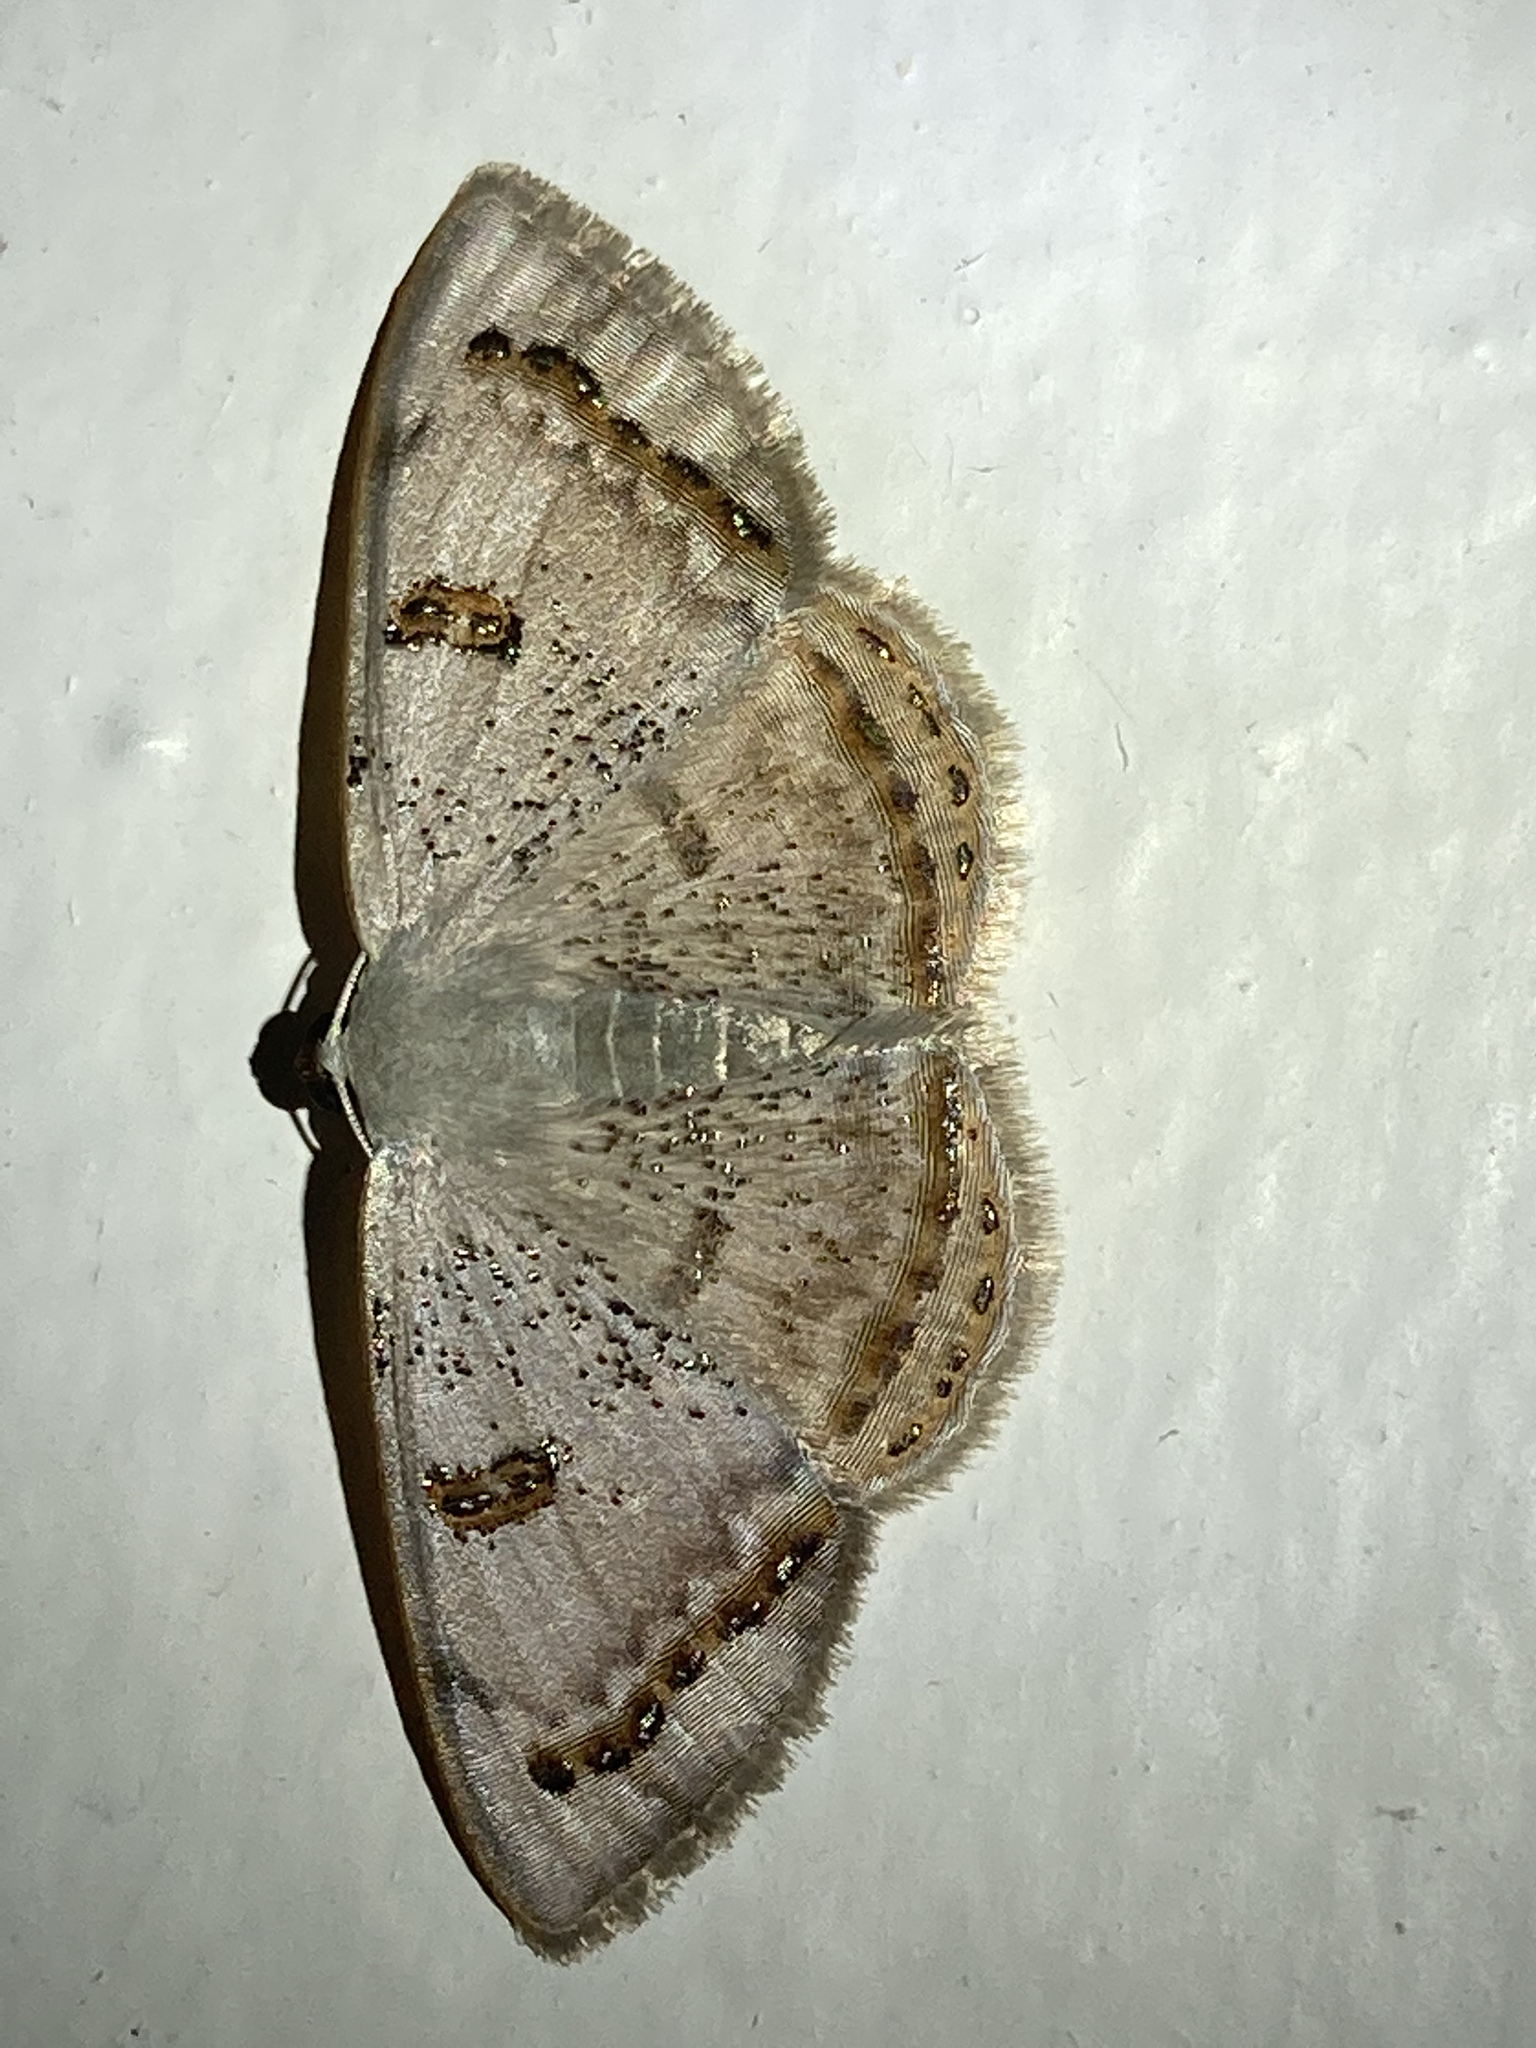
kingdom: Animalia
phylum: Arthropoda
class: Insecta
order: Lepidoptera
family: Geometridae
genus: Argyrotome
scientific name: Argyrotome prospectata
